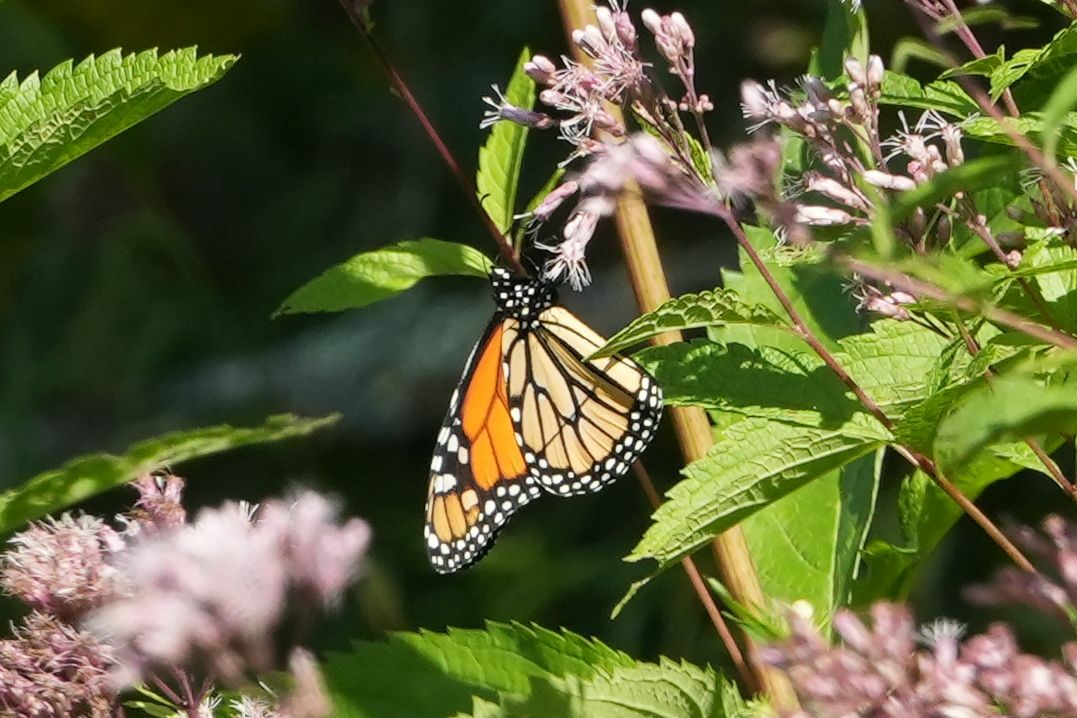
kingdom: Animalia
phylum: Arthropoda
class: Insecta
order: Lepidoptera
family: Nymphalidae
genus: Danaus
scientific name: Danaus plexippus
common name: Monarch
